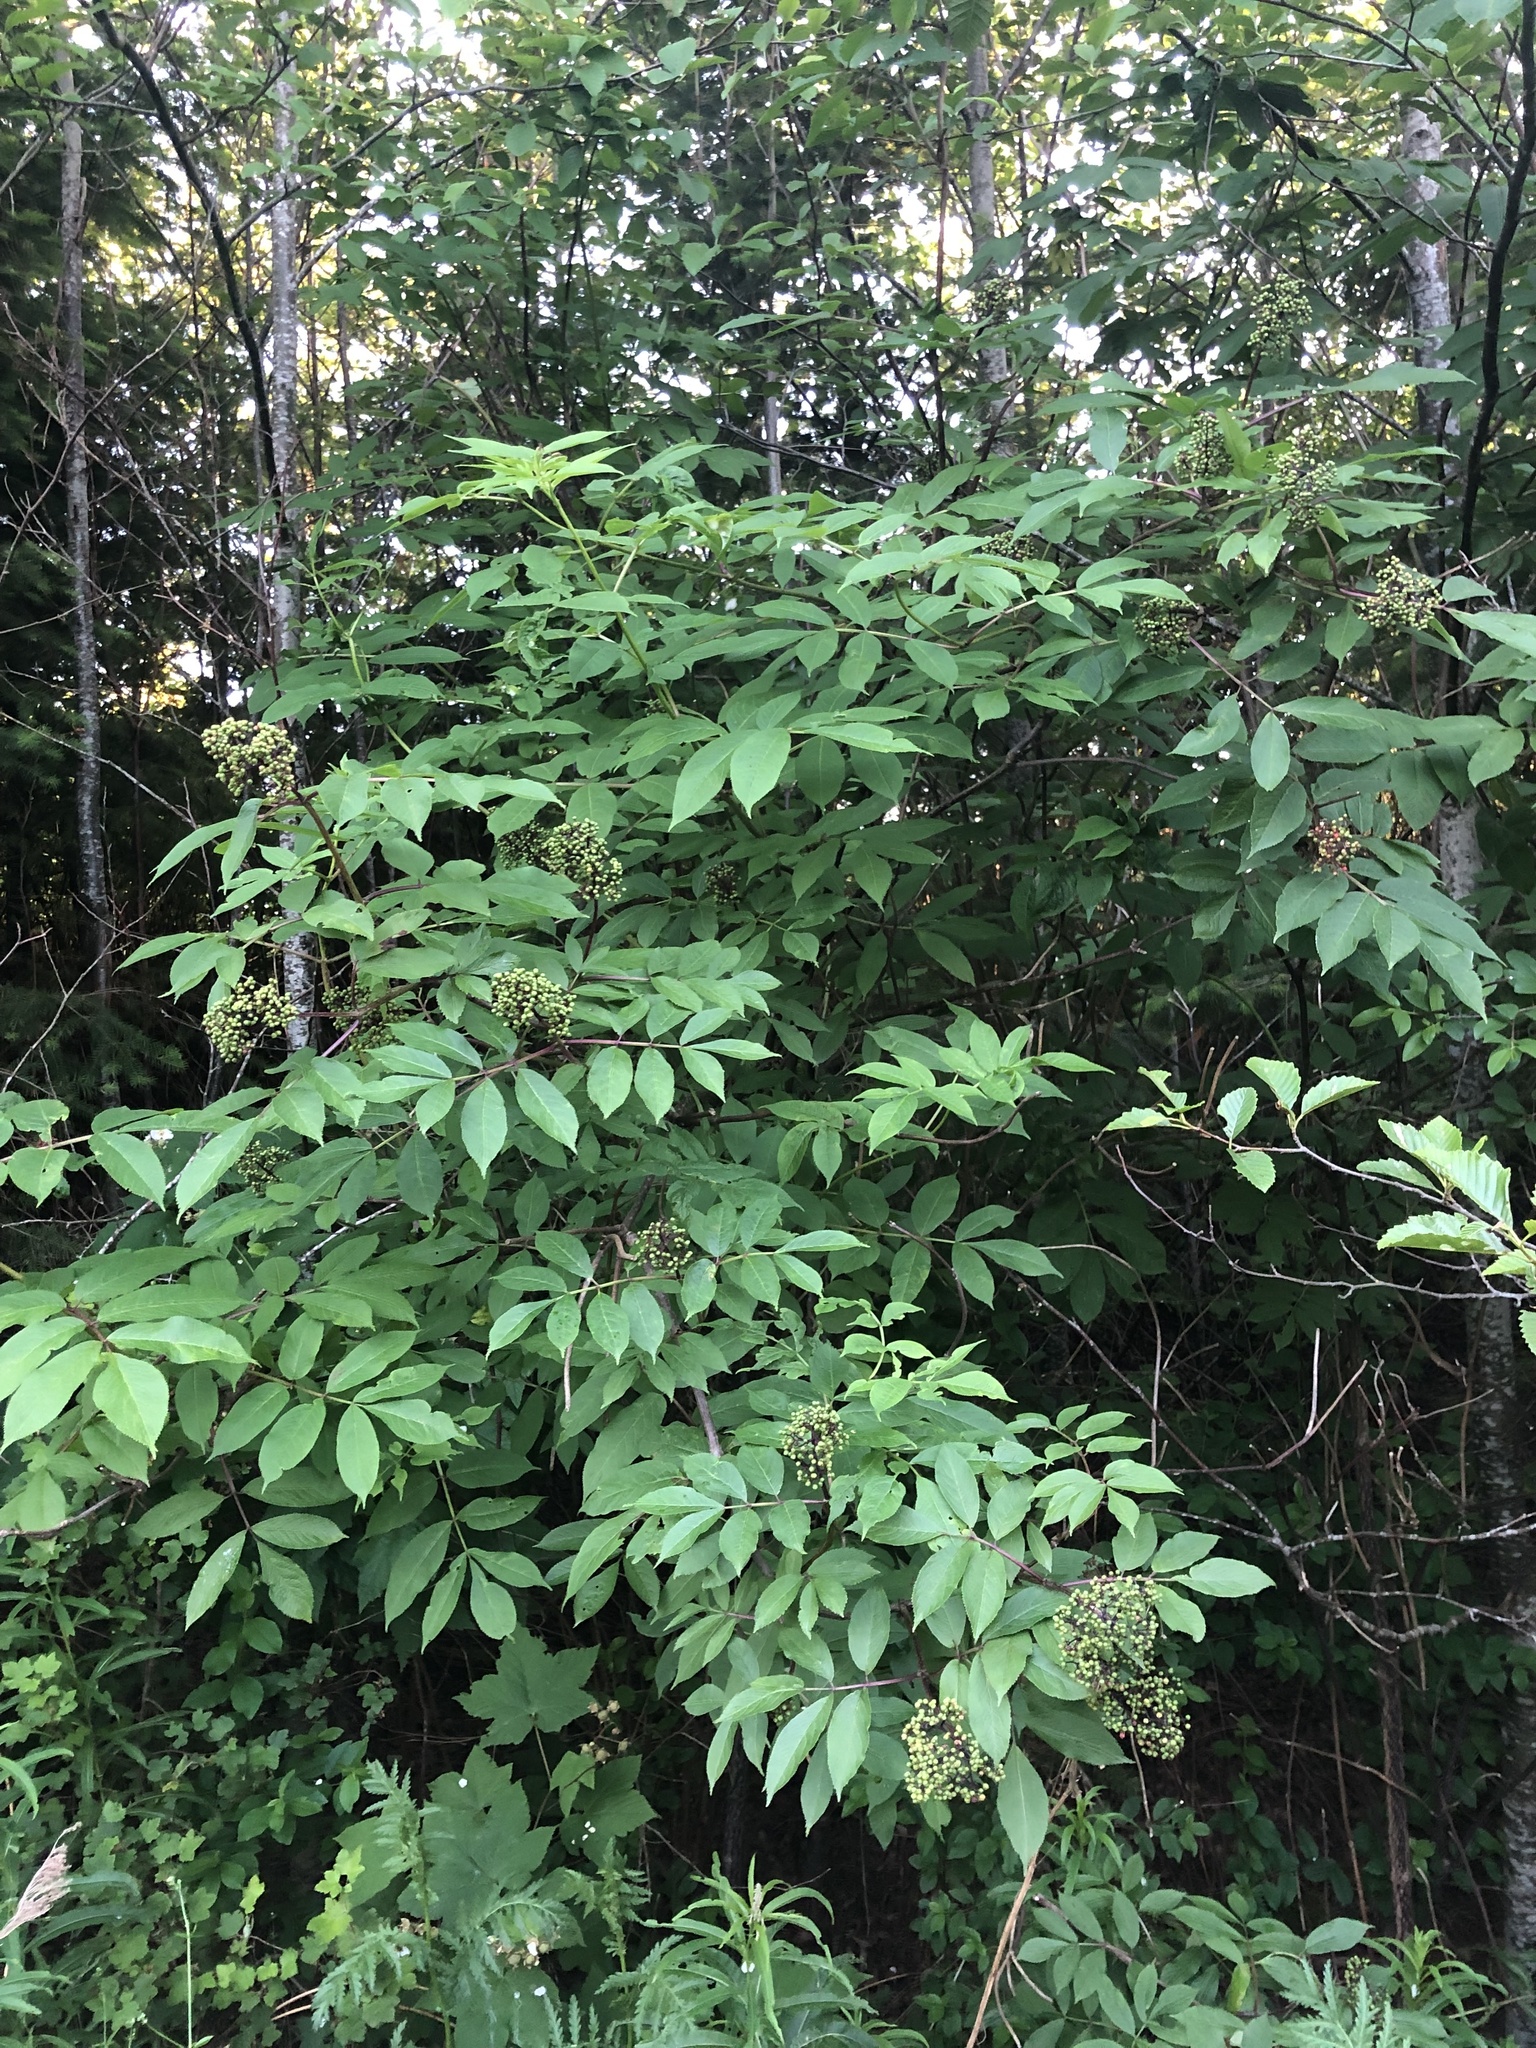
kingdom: Plantae
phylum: Tracheophyta
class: Magnoliopsida
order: Dipsacales
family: Viburnaceae
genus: Sambucus
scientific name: Sambucus racemosa
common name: Red-berried elder
